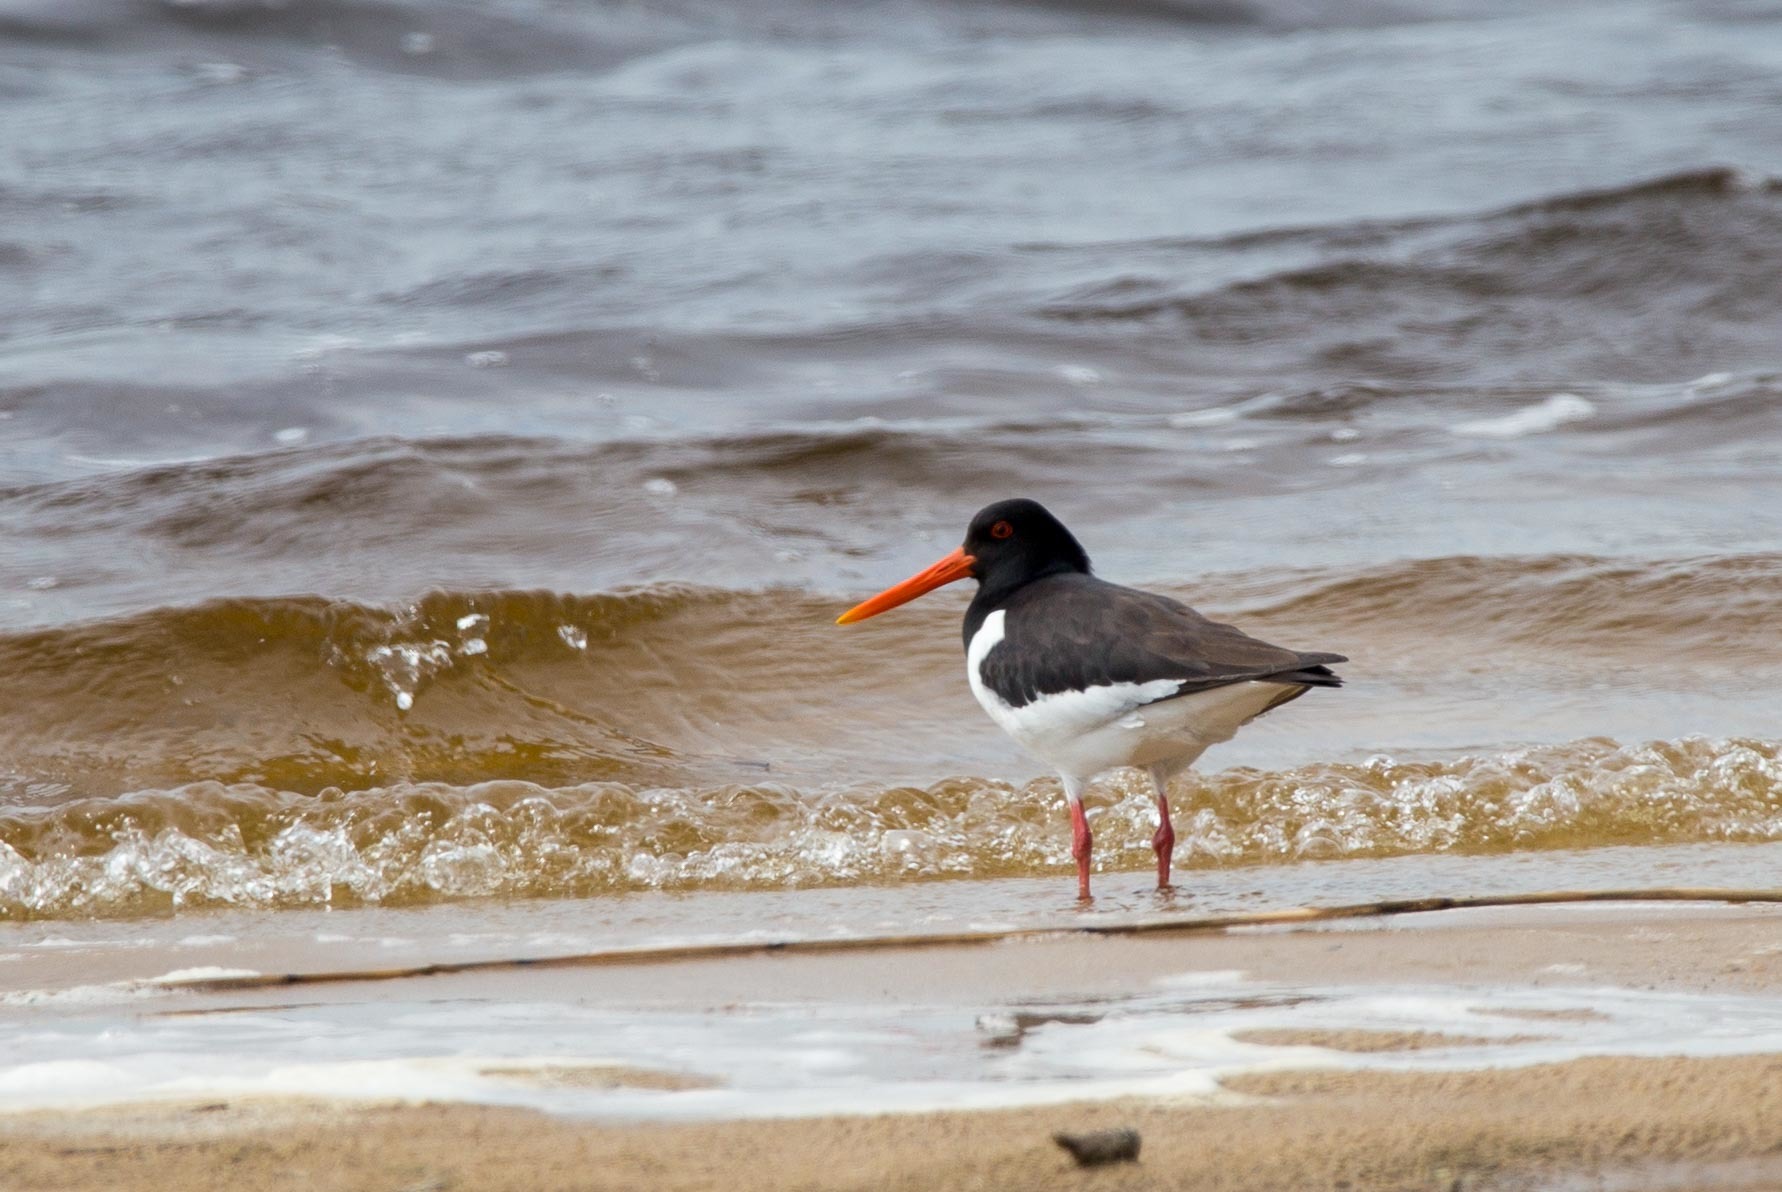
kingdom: Animalia
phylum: Chordata
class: Aves
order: Charadriiformes
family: Haematopodidae
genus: Haematopus
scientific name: Haematopus ostralegus
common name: Eurasian oystercatcher
